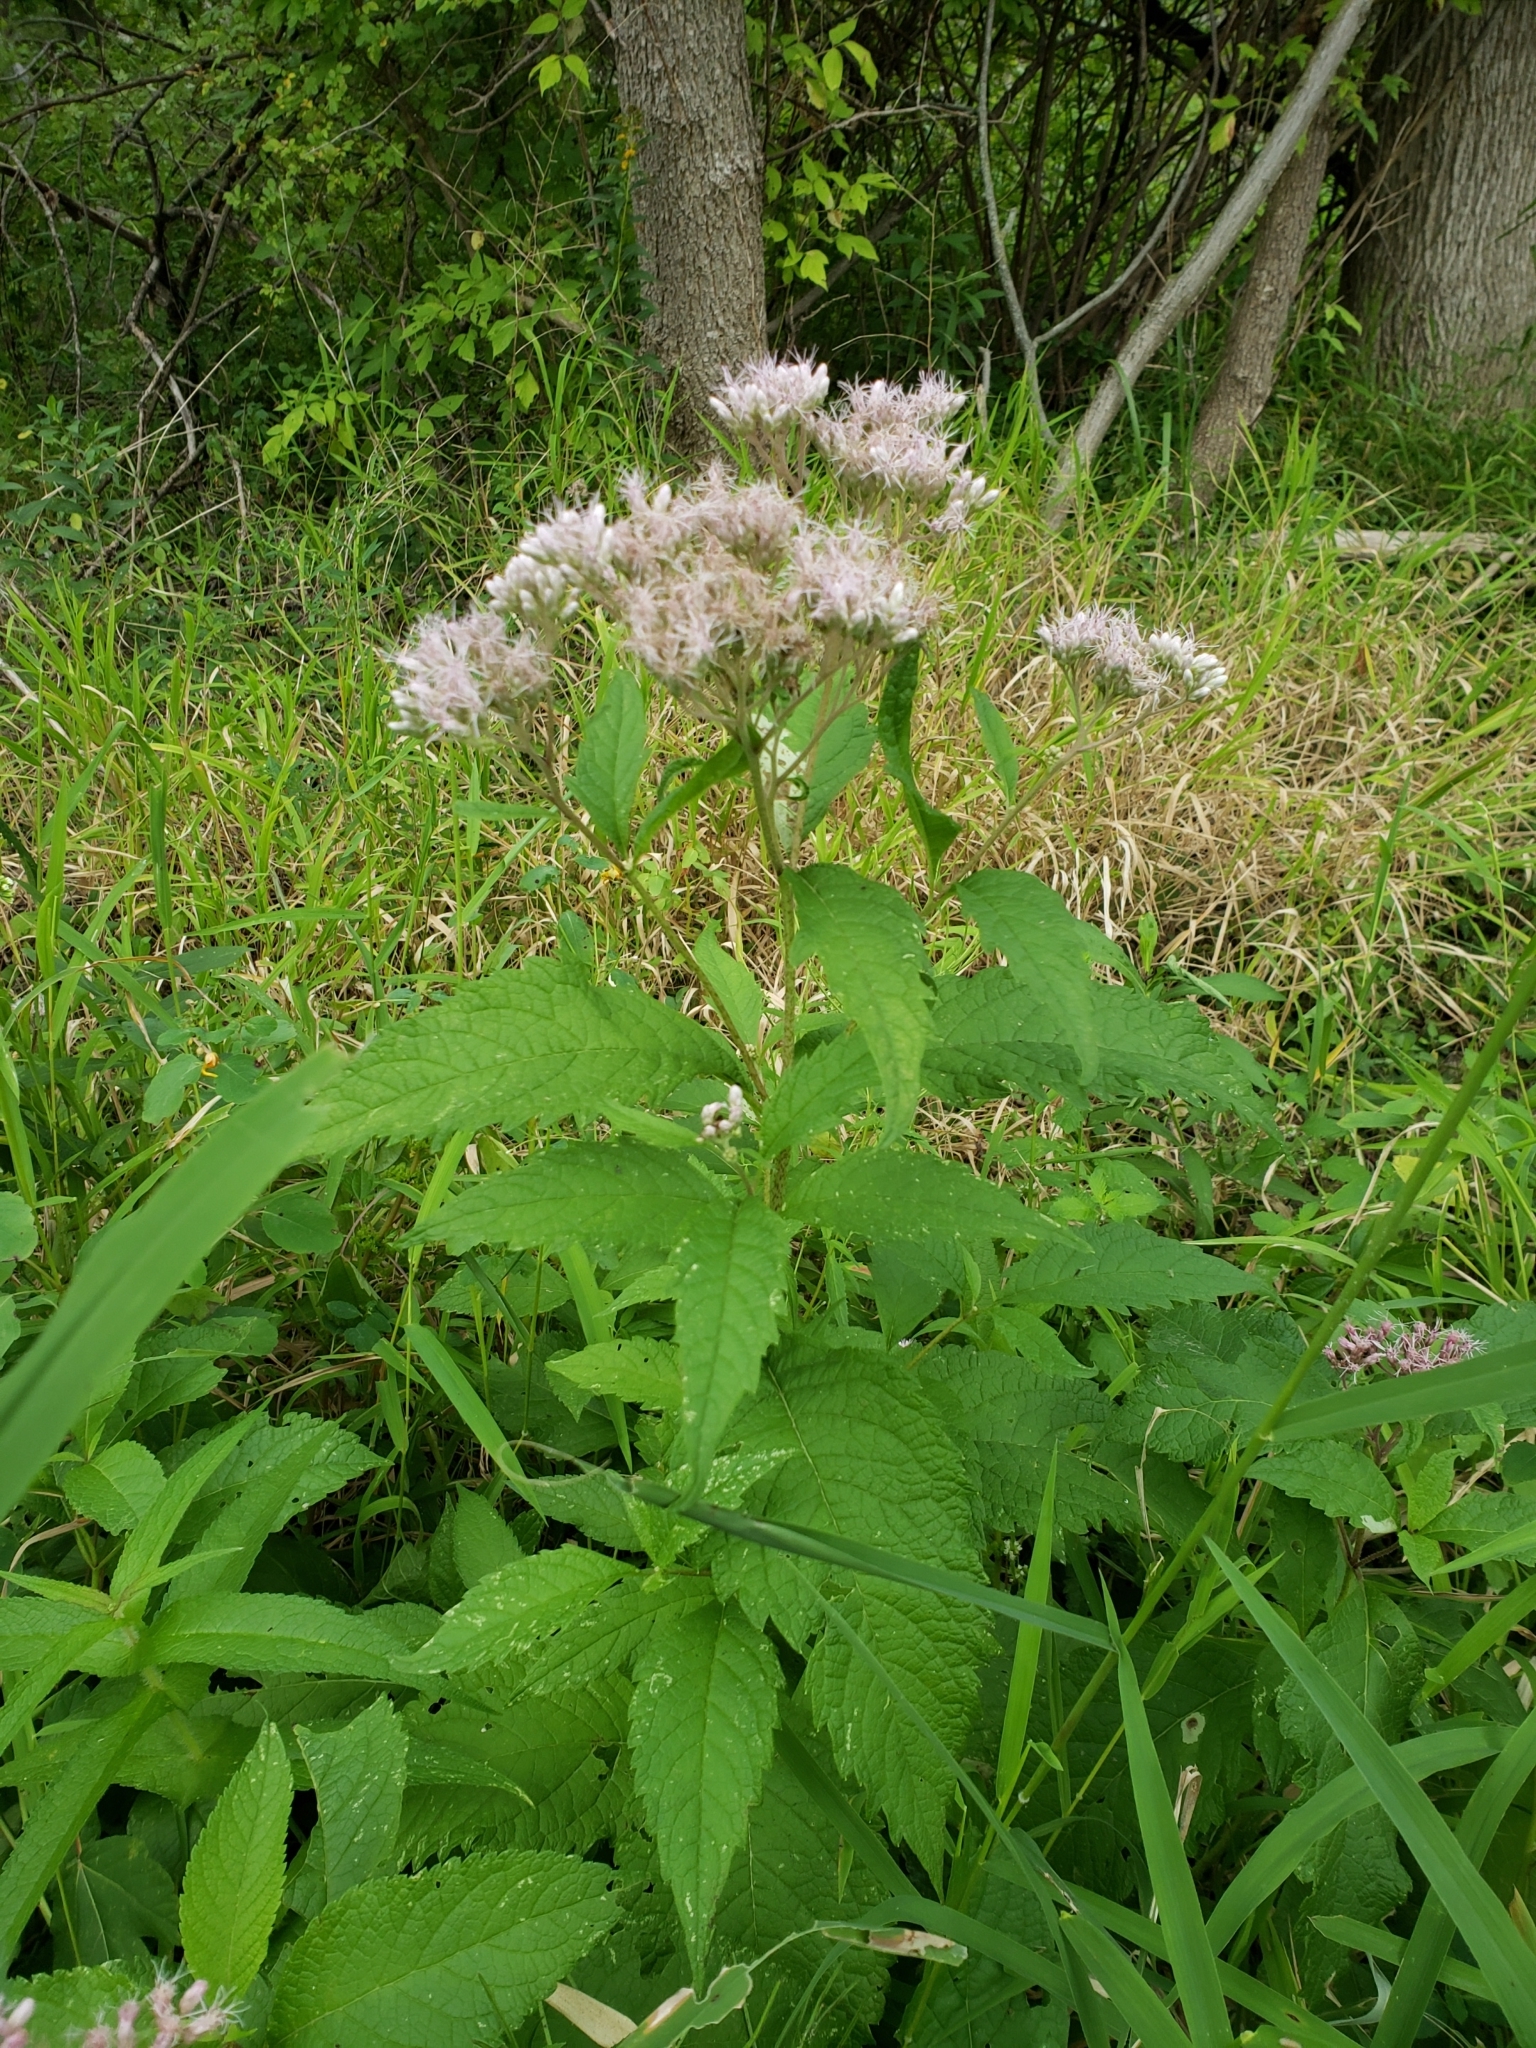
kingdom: Plantae
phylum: Tracheophyta
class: Magnoliopsida
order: Asterales
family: Asteraceae
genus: Eutrochium
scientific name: Eutrochium maculatum
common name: Spotted joe pye weed
